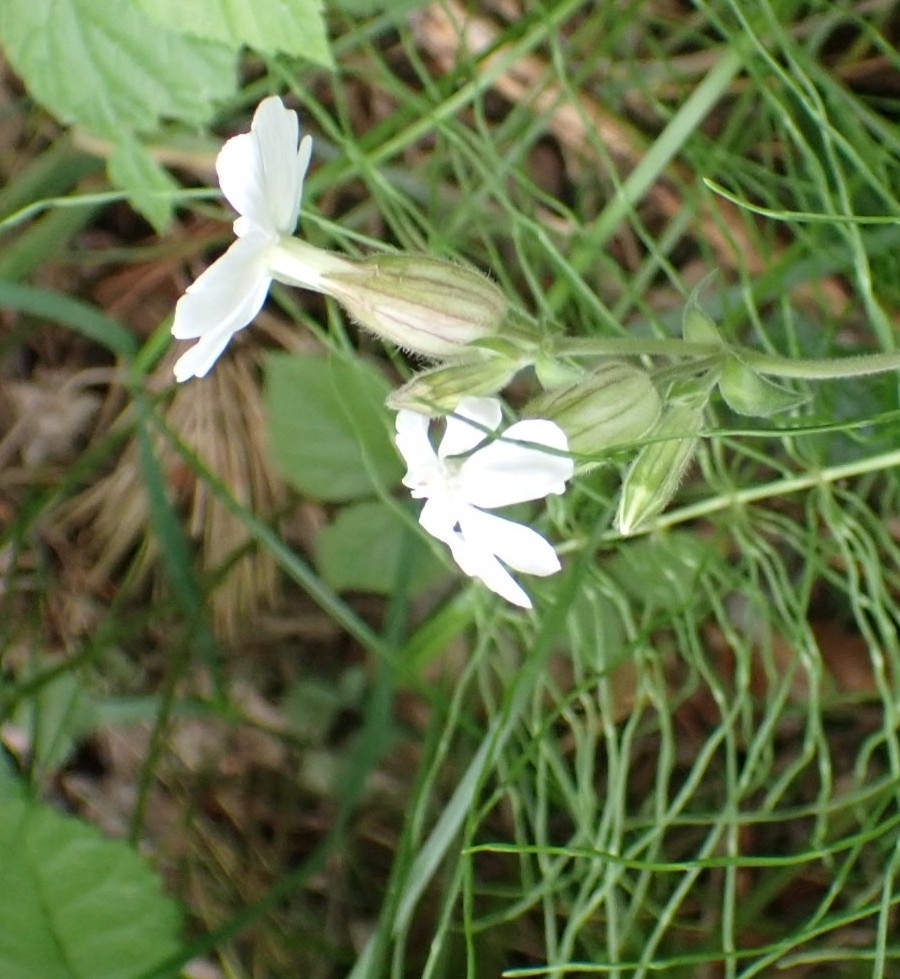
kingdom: Plantae
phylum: Tracheophyta
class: Magnoliopsida
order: Caryophyllales
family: Caryophyllaceae
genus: Silene
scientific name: Silene latifolia
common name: White campion
